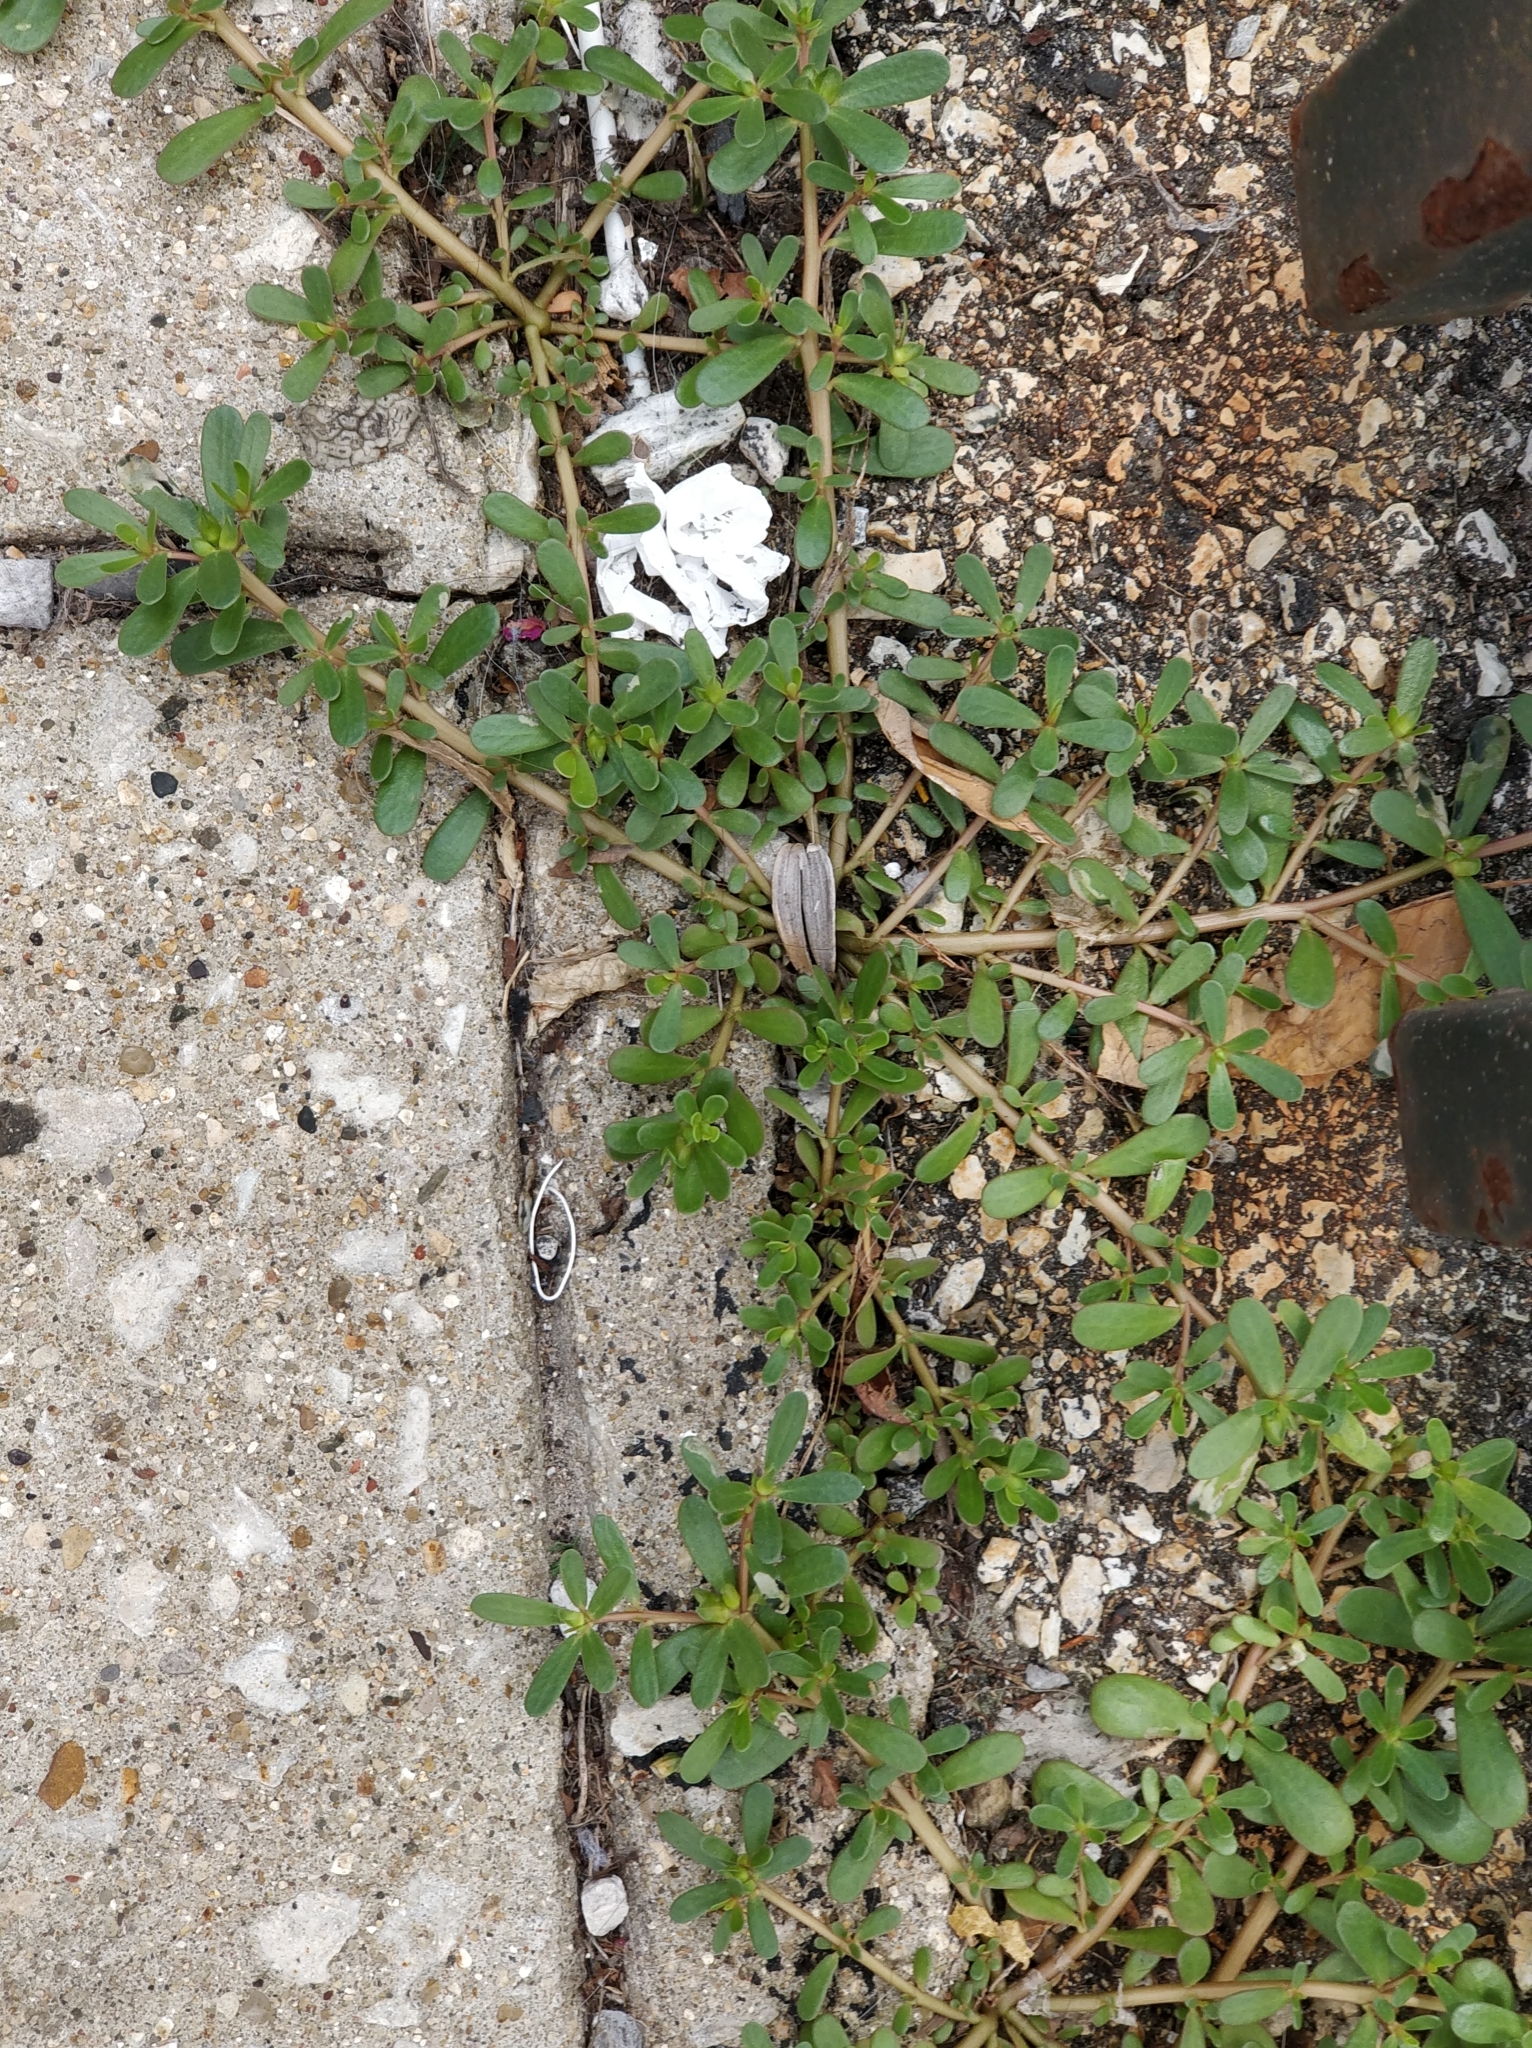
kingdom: Plantae
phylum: Tracheophyta
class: Magnoliopsida
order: Caryophyllales
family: Portulacaceae
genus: Portulaca
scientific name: Portulaca oleracea
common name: Common purslane
